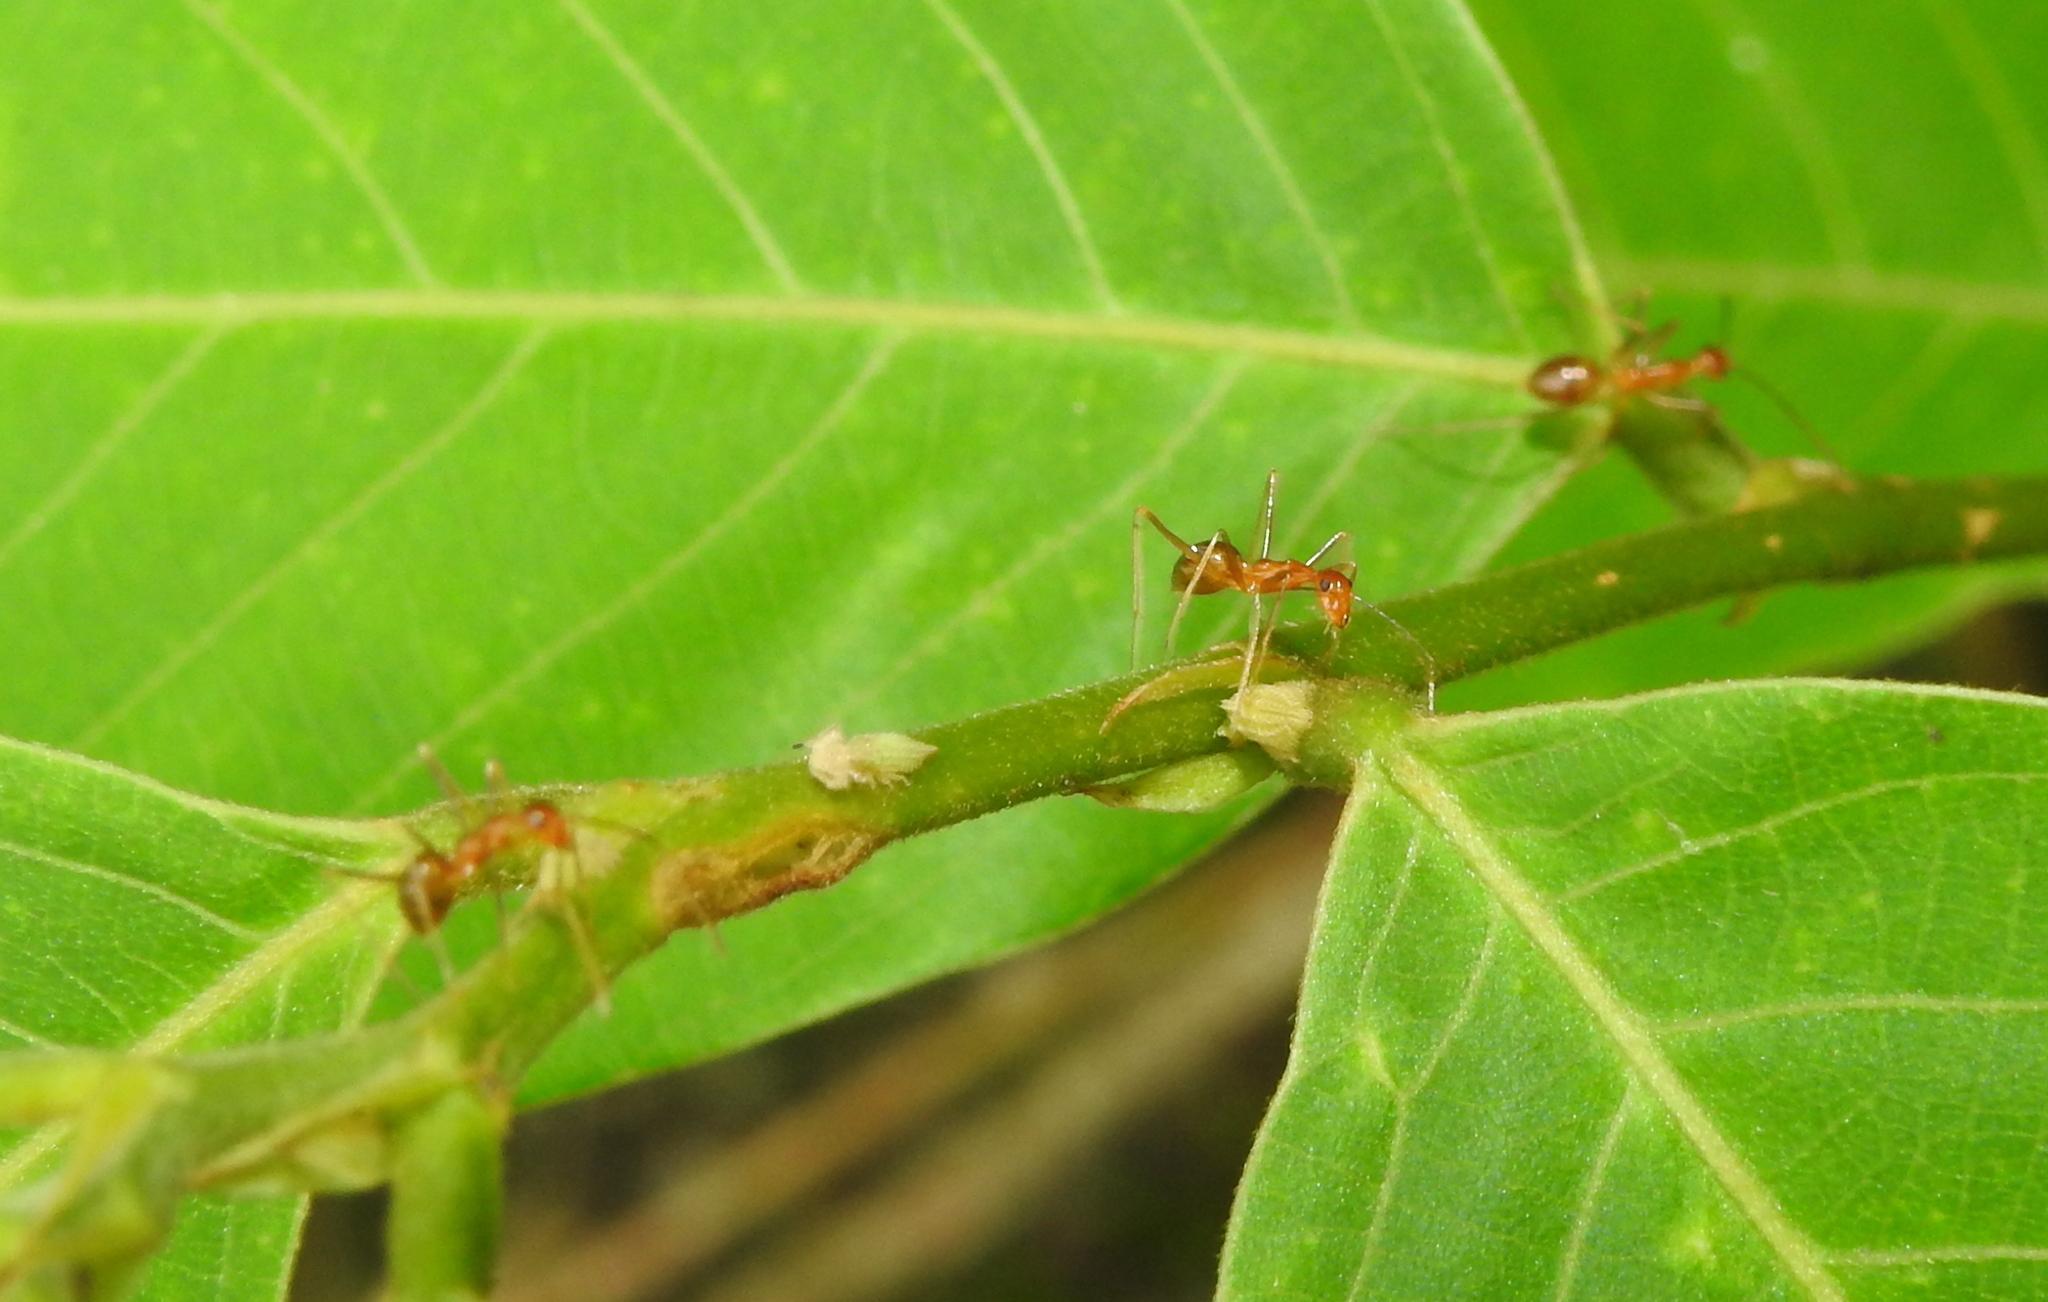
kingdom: Animalia
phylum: Arthropoda
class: Insecta
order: Hymenoptera
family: Formicidae
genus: Anoplolepis
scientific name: Anoplolepis gracilipes
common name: Ant
